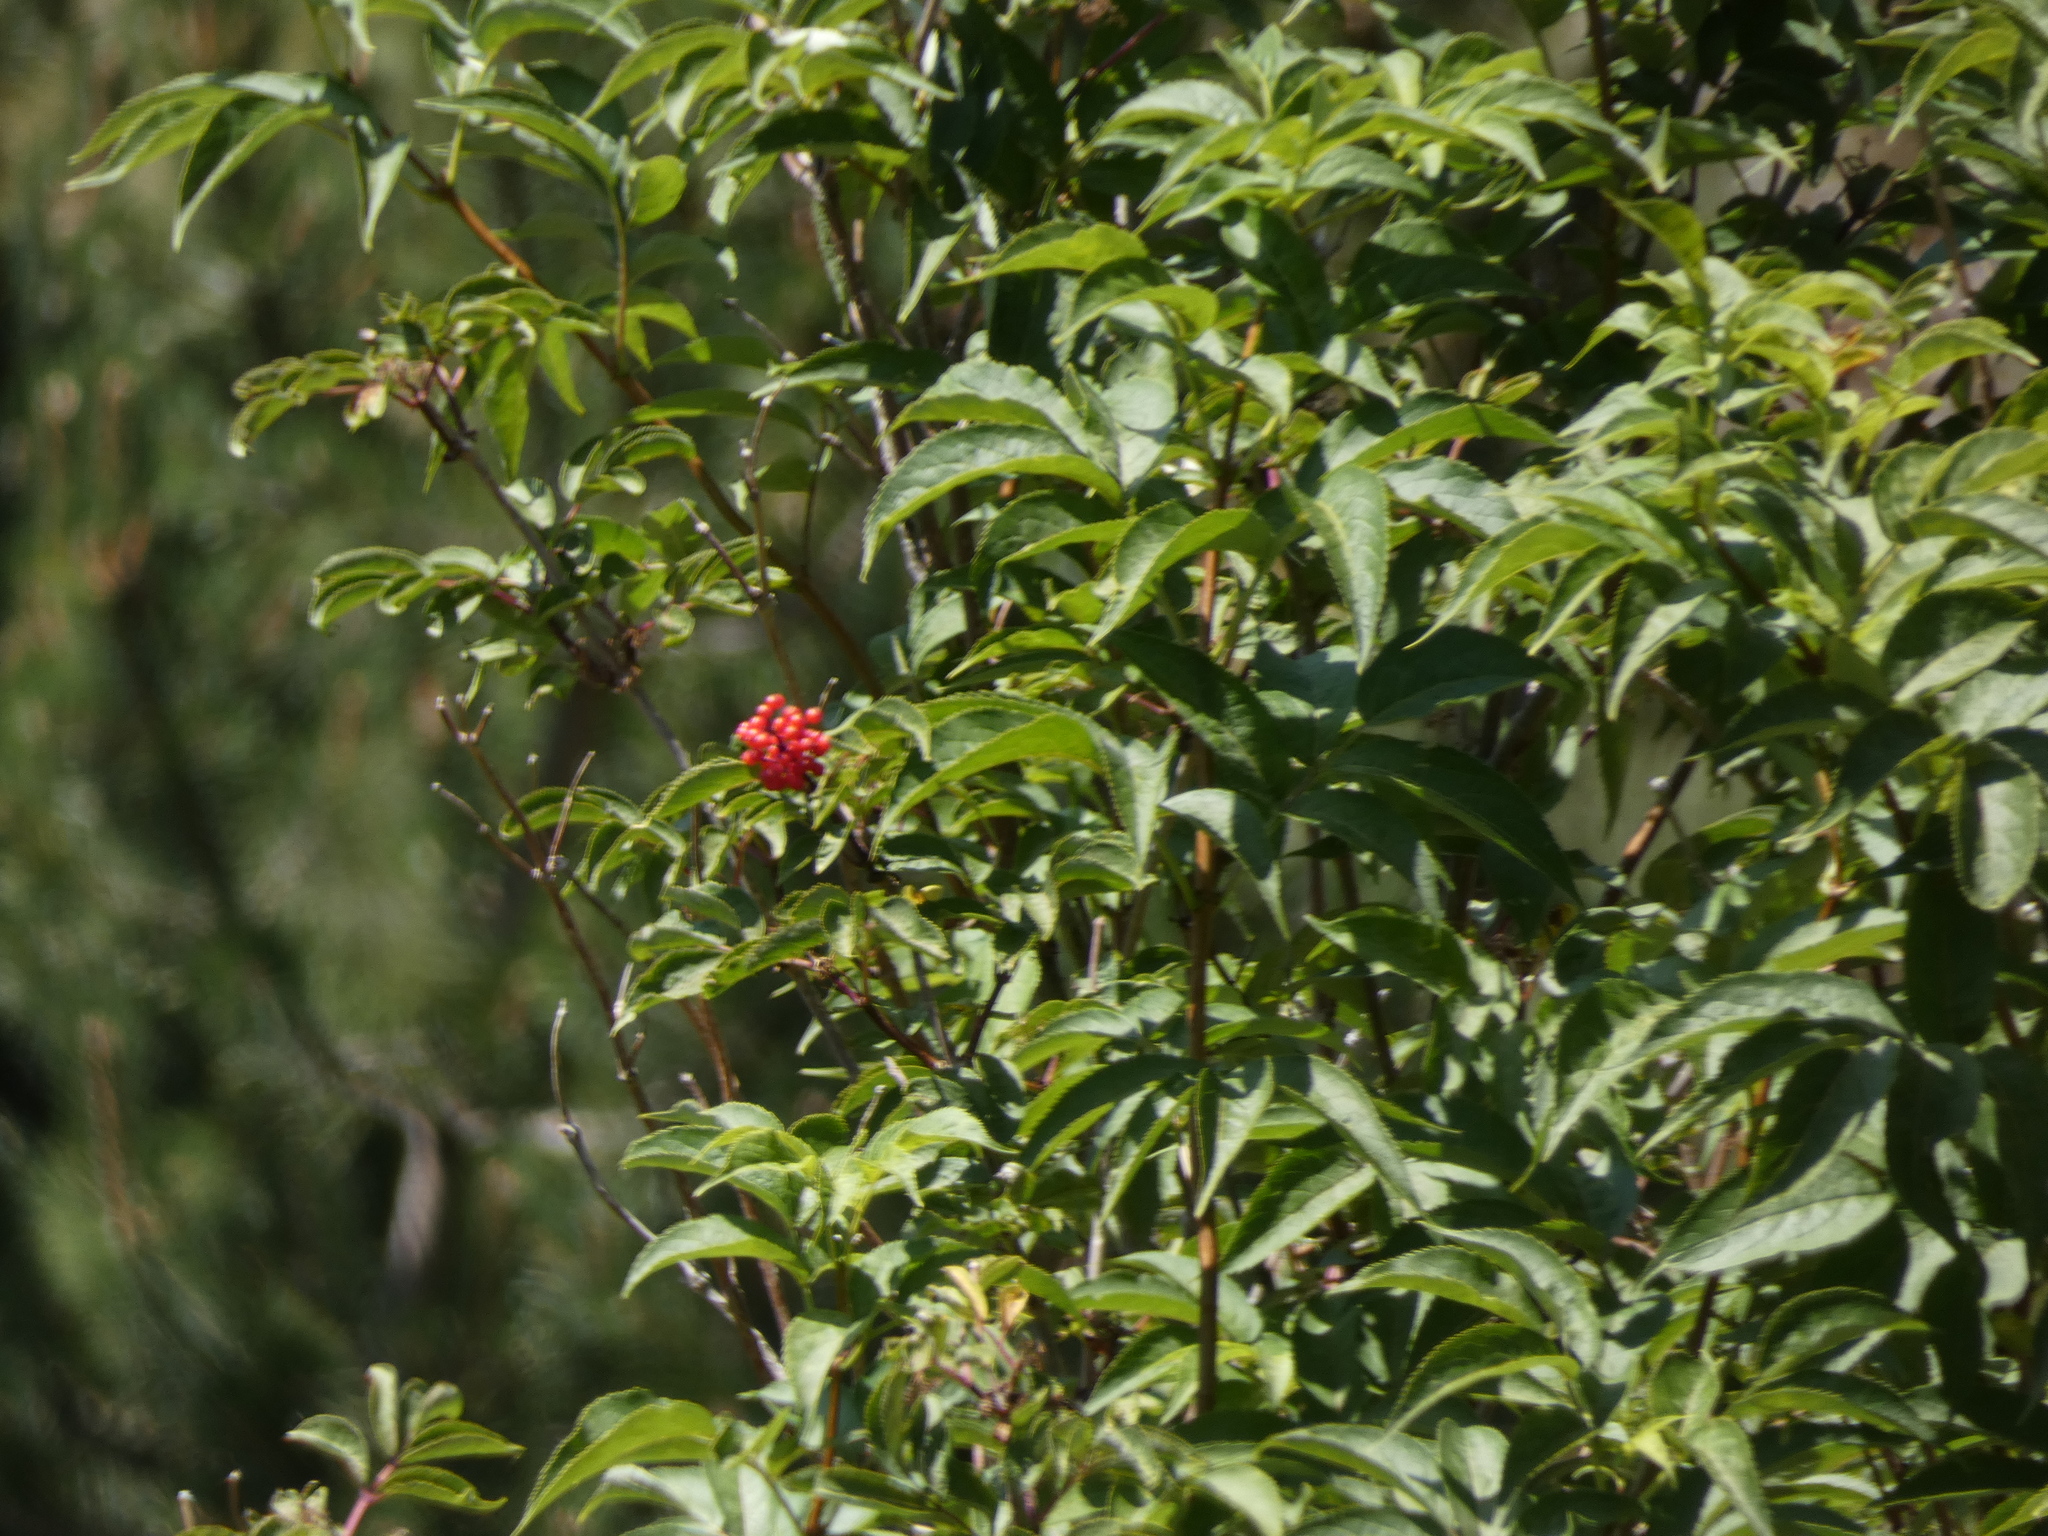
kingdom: Plantae
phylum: Tracheophyta
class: Magnoliopsida
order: Dipsacales
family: Viburnaceae
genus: Sambucus
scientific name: Sambucus racemosa
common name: Red-berried elder
